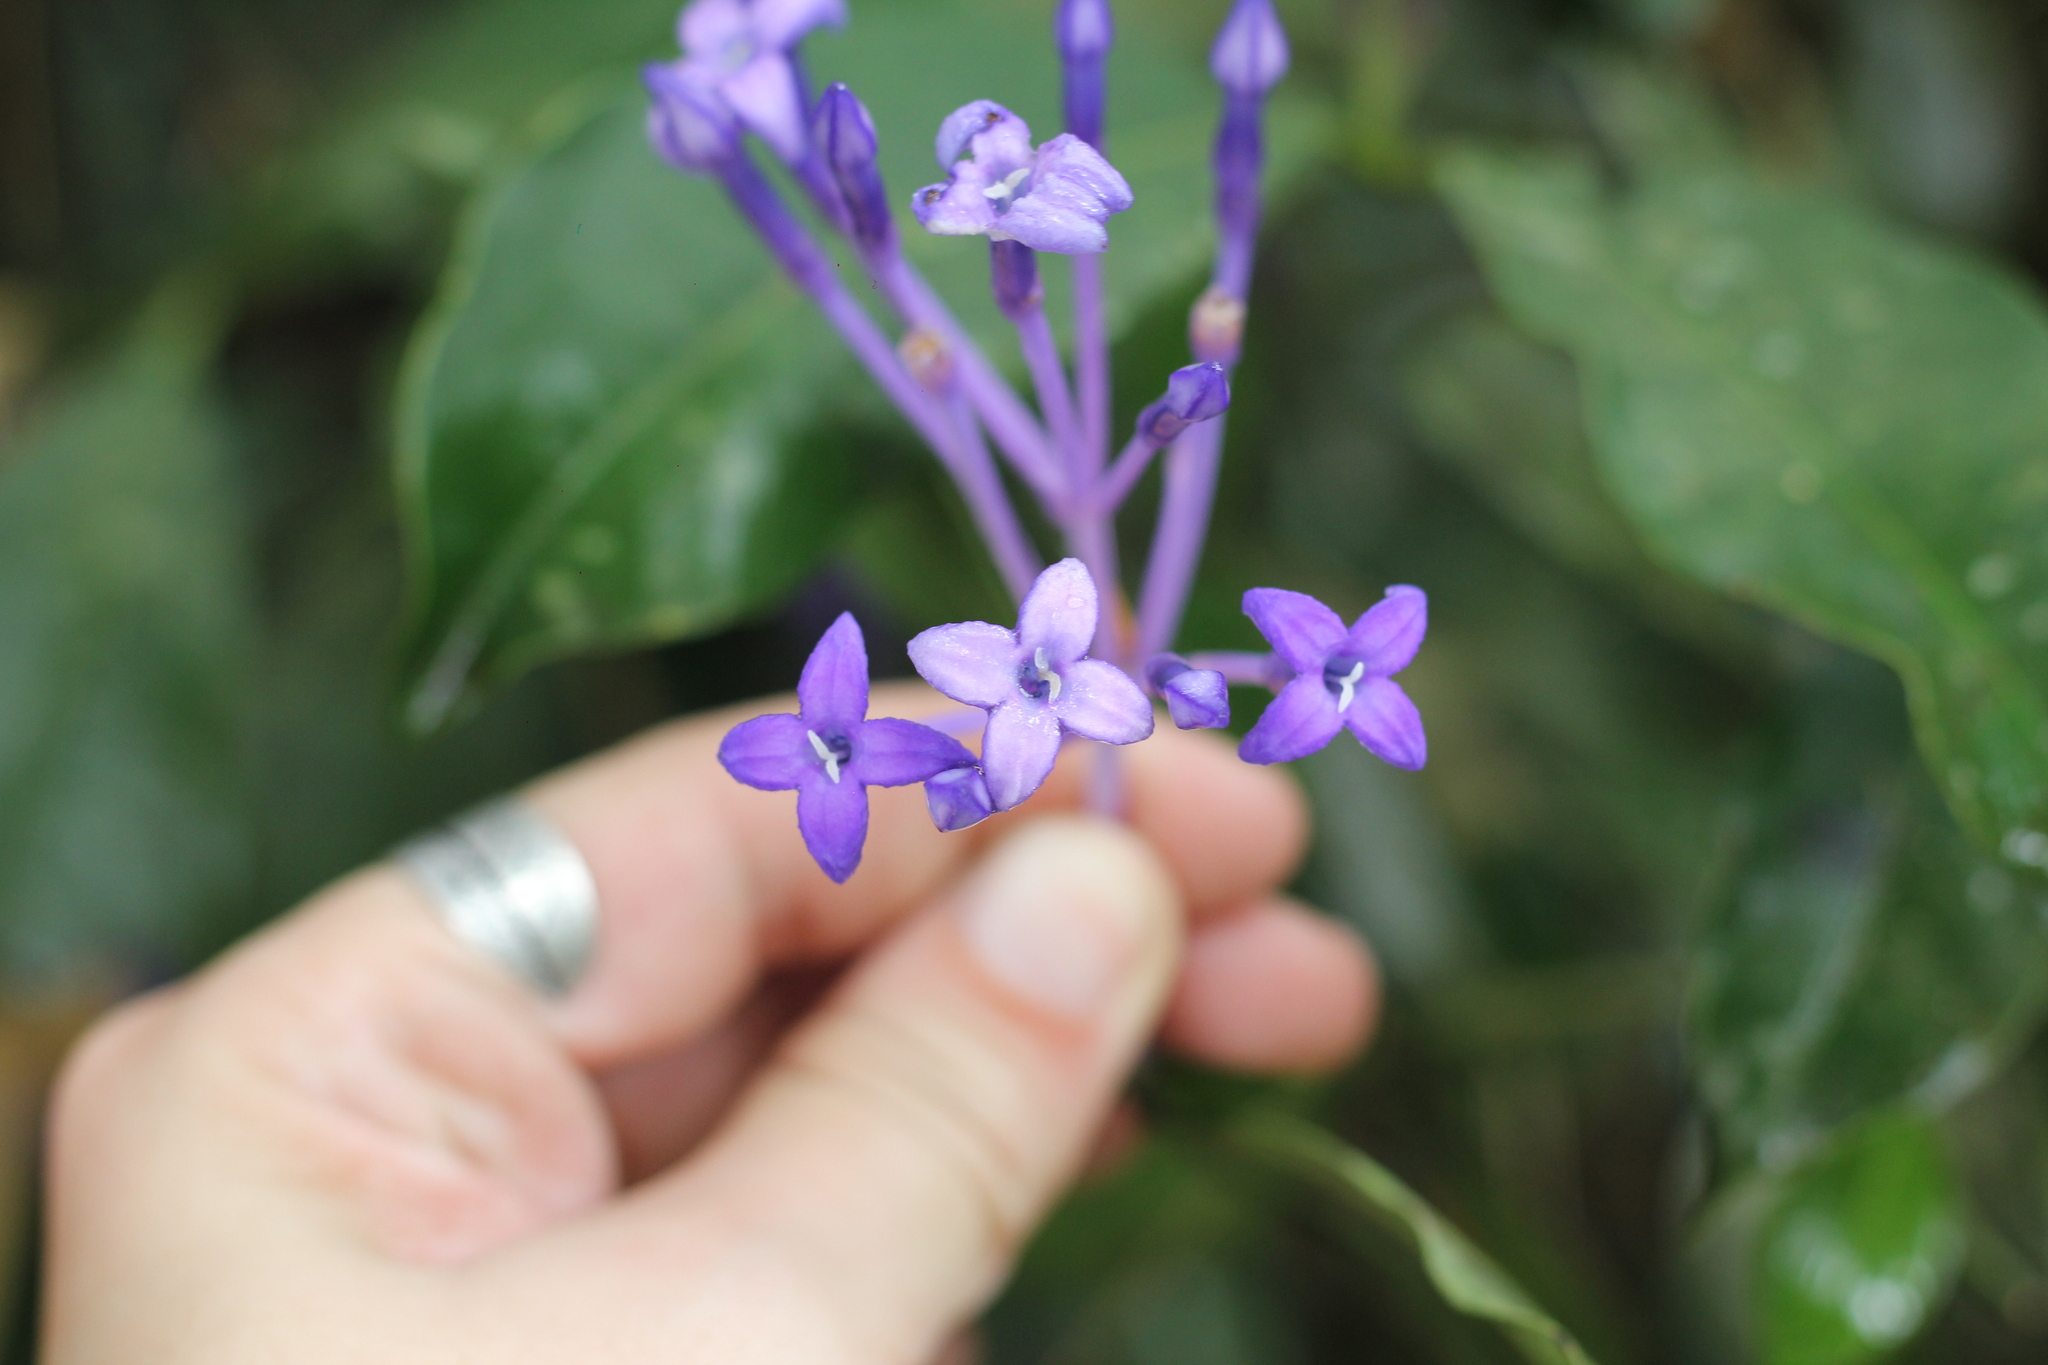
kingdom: Plantae
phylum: Tracheophyta
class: Magnoliopsida
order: Gentianales
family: Rubiaceae
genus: Faramea
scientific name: Faramea hyacinthina
